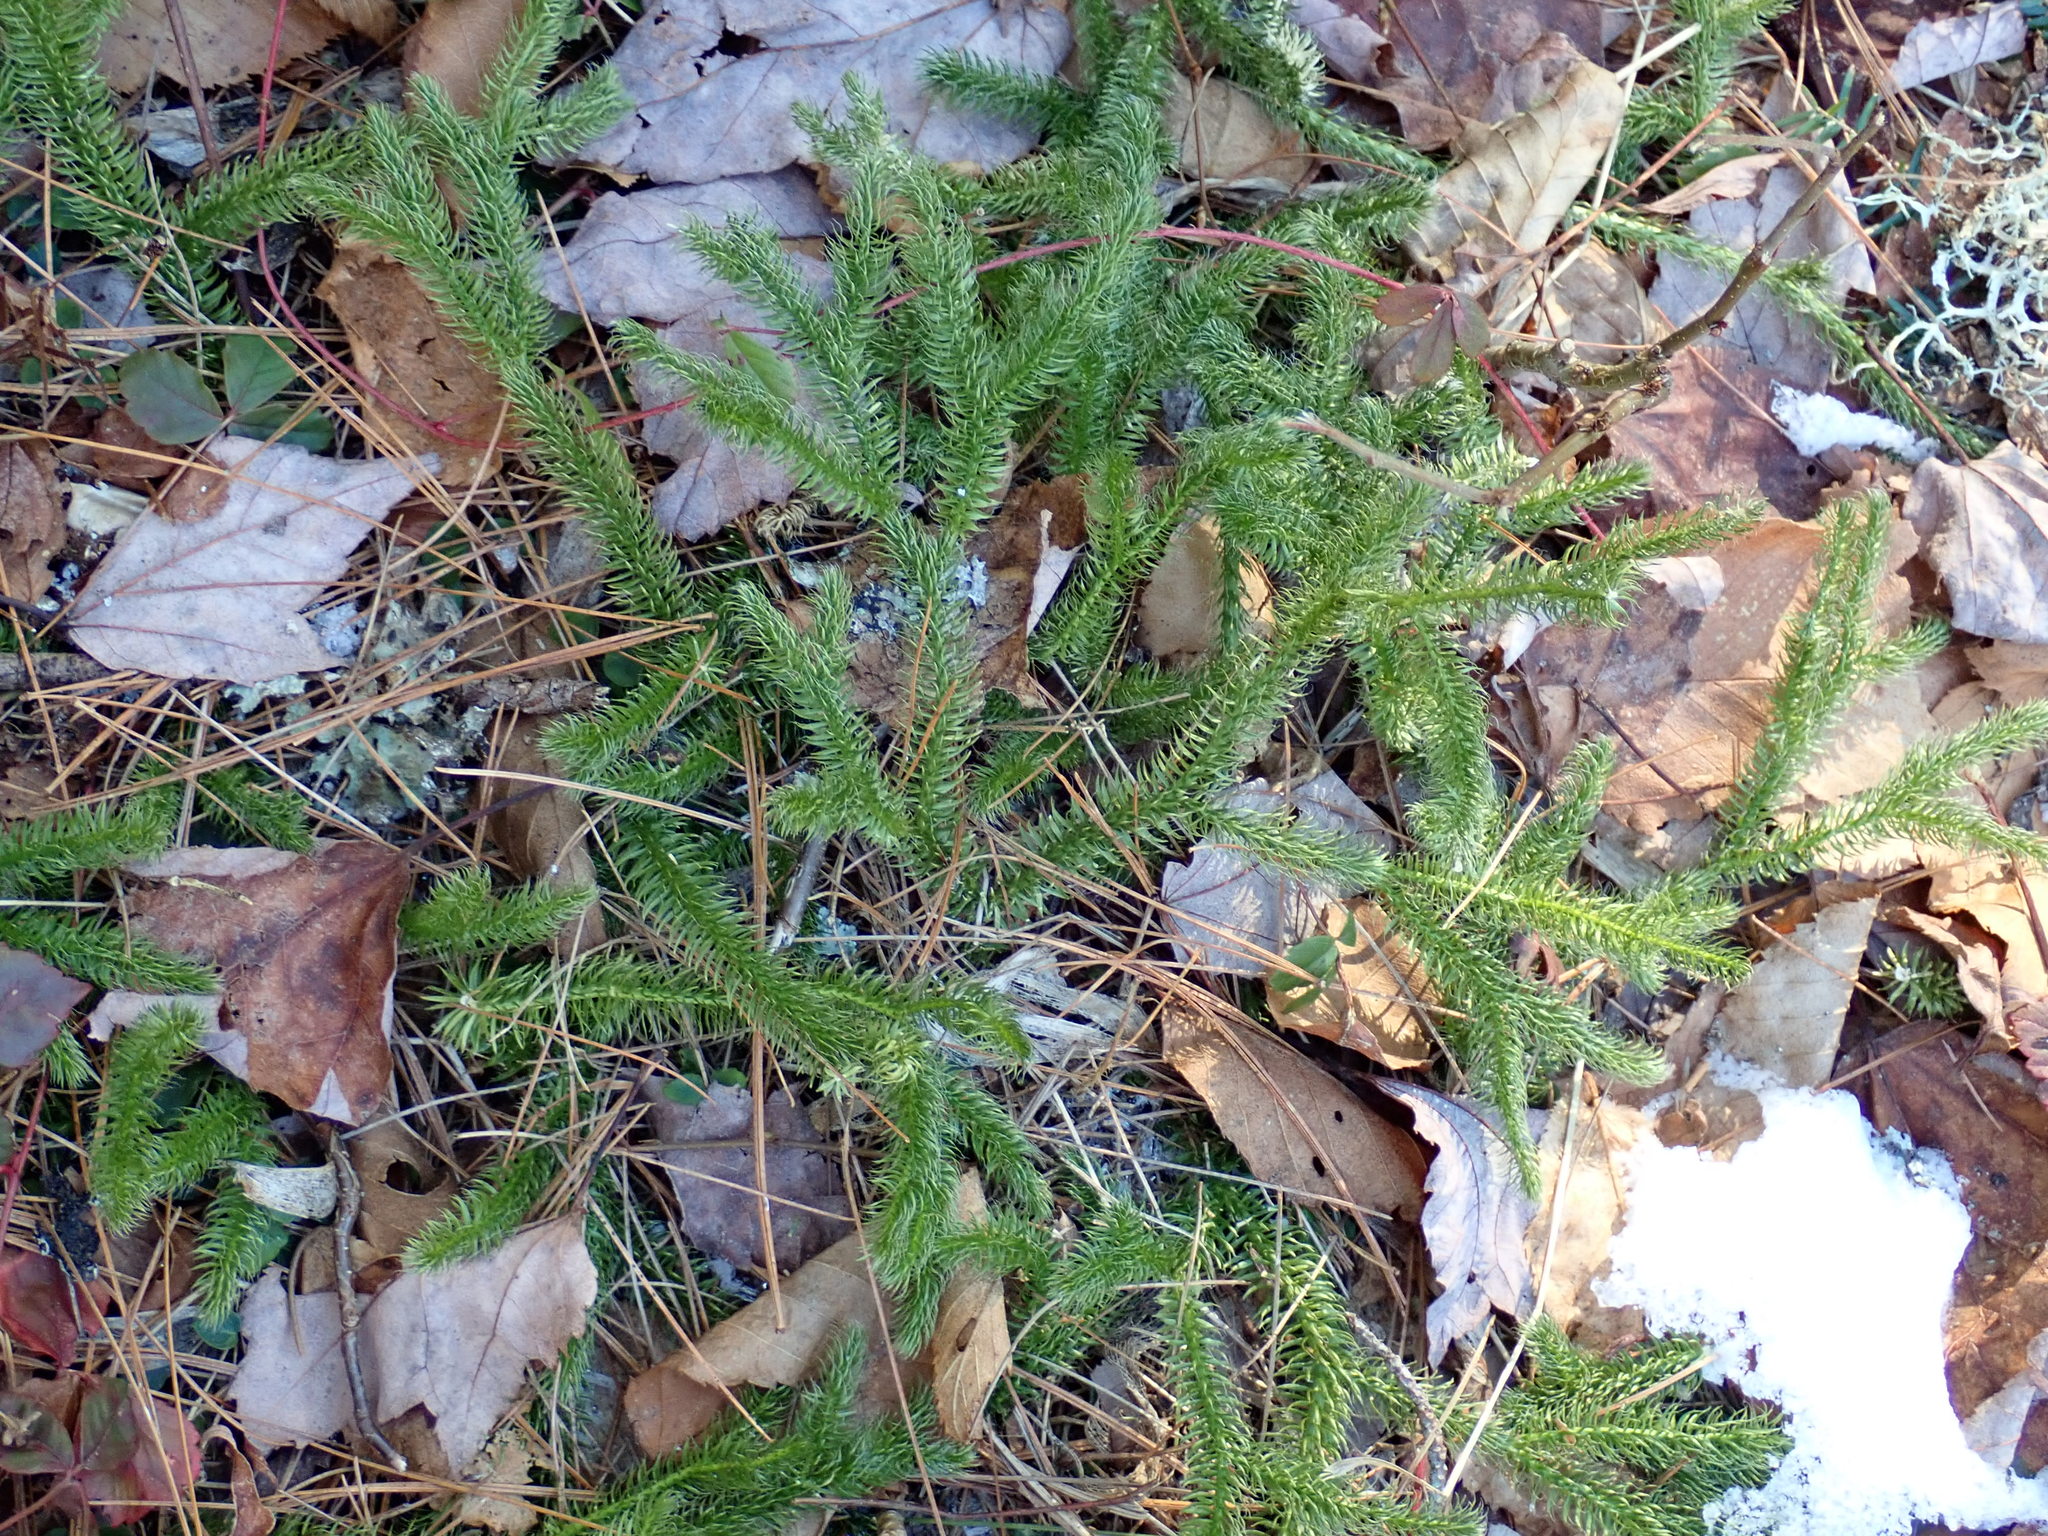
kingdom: Plantae
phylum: Tracheophyta
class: Lycopodiopsida
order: Lycopodiales
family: Lycopodiaceae
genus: Lycopodium
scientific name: Lycopodium clavatum
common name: Stag's-horn clubmoss
